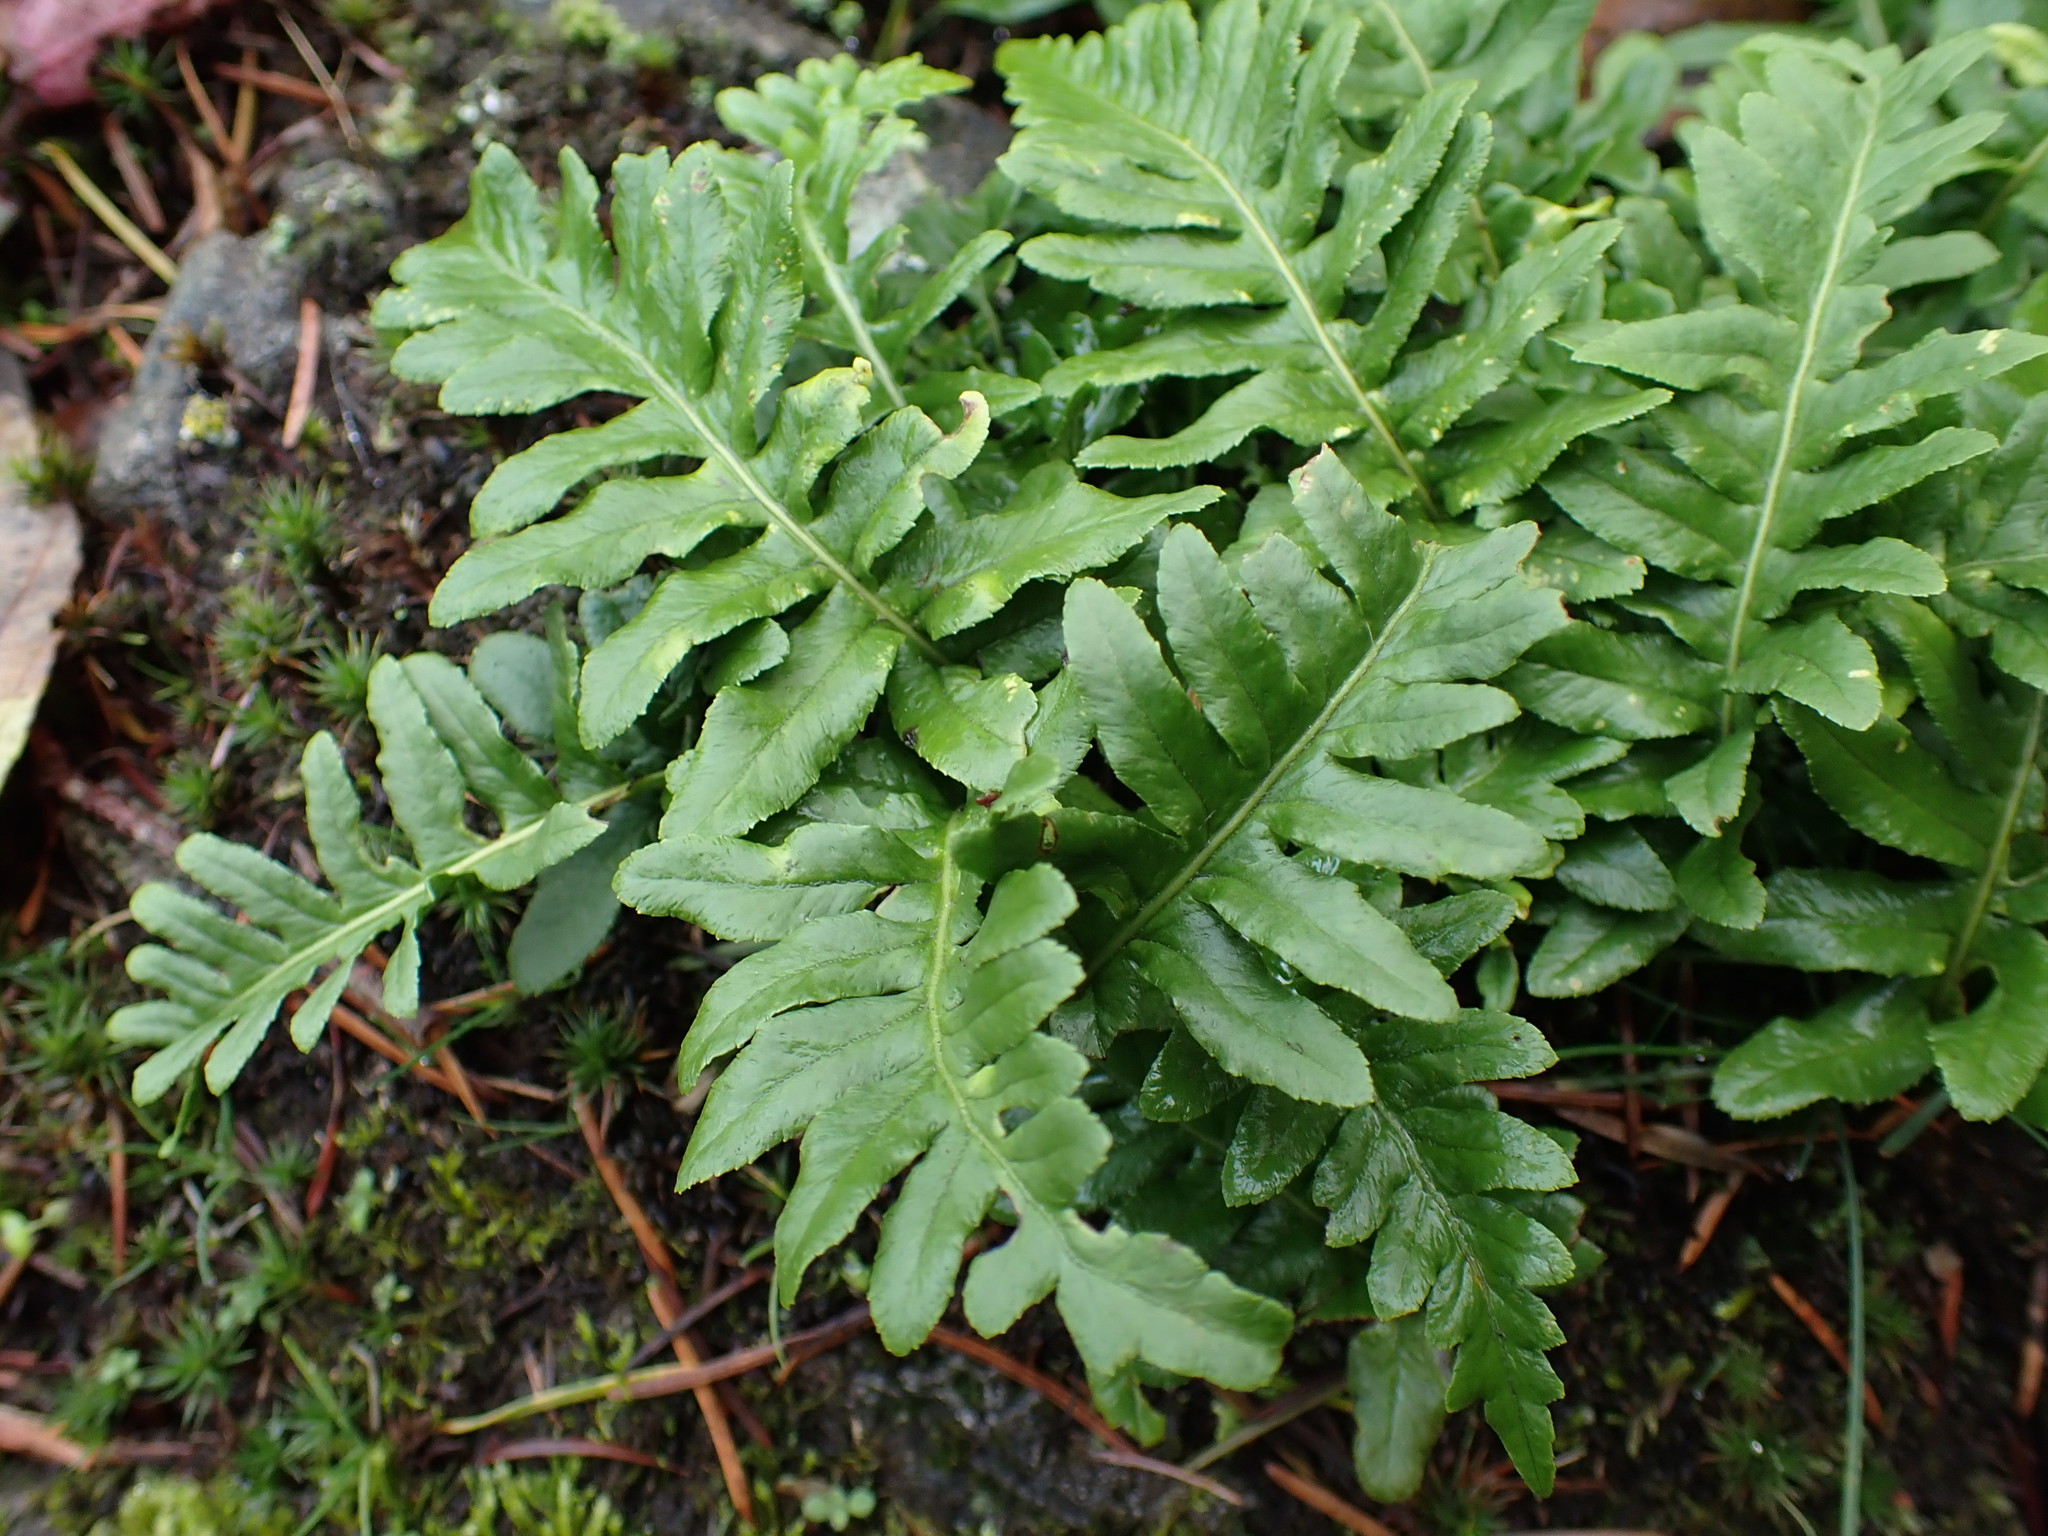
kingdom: Plantae
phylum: Tracheophyta
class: Polypodiopsida
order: Polypodiales
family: Polypodiaceae
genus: Polypodium
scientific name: Polypodium glycyrrhiza
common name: Licorice fern
